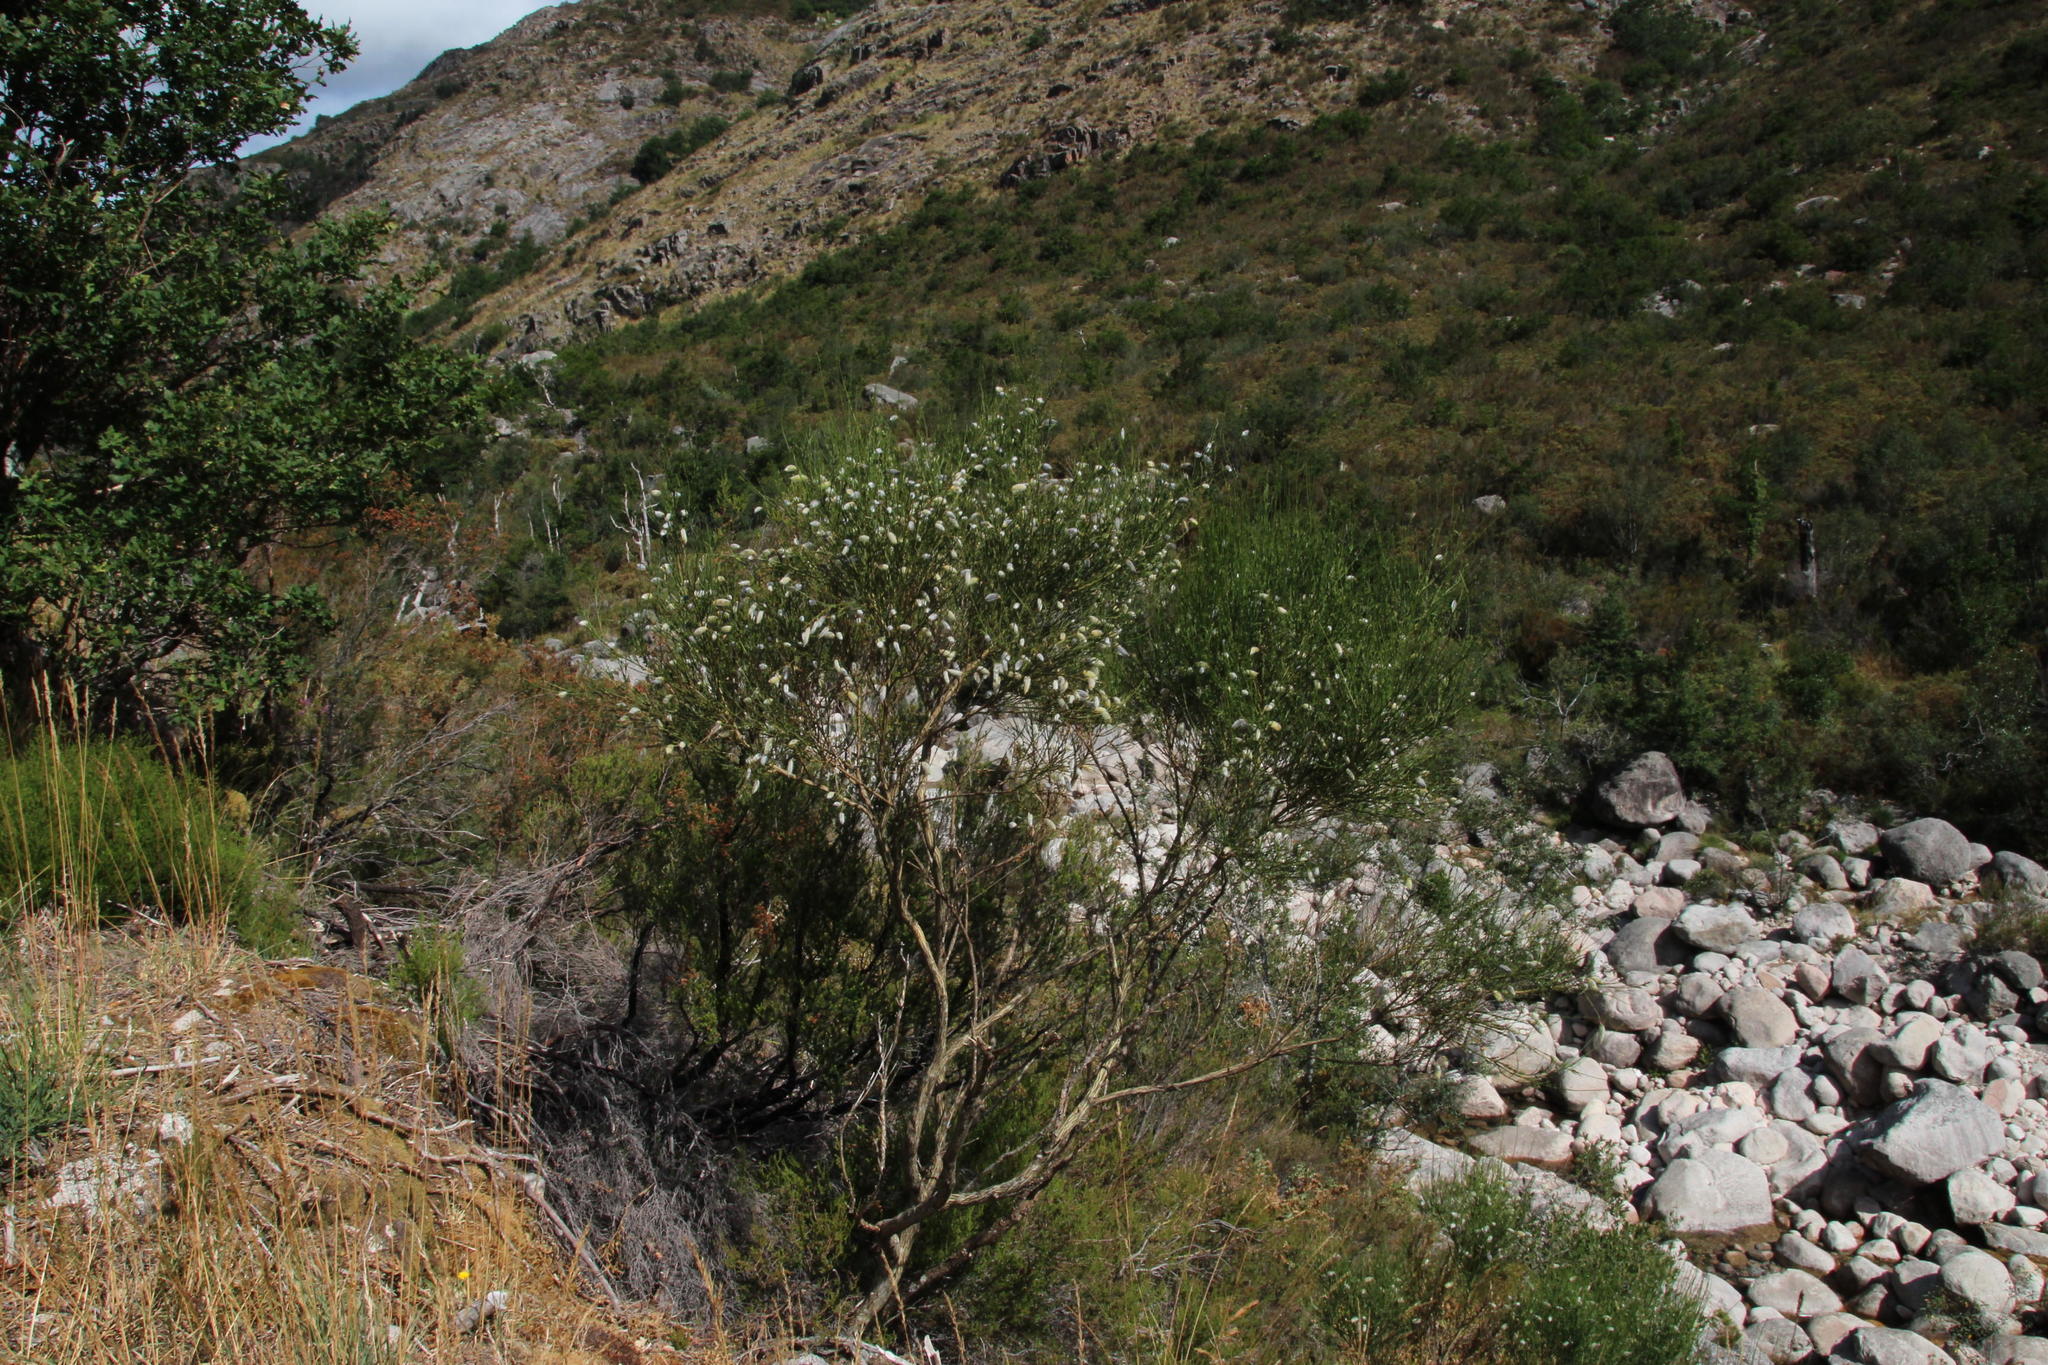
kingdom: Plantae
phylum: Tracheophyta
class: Magnoliopsida
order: Fabales
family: Fabaceae
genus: Cytisus
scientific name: Cytisus striatus
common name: Hairy-fruited broom
